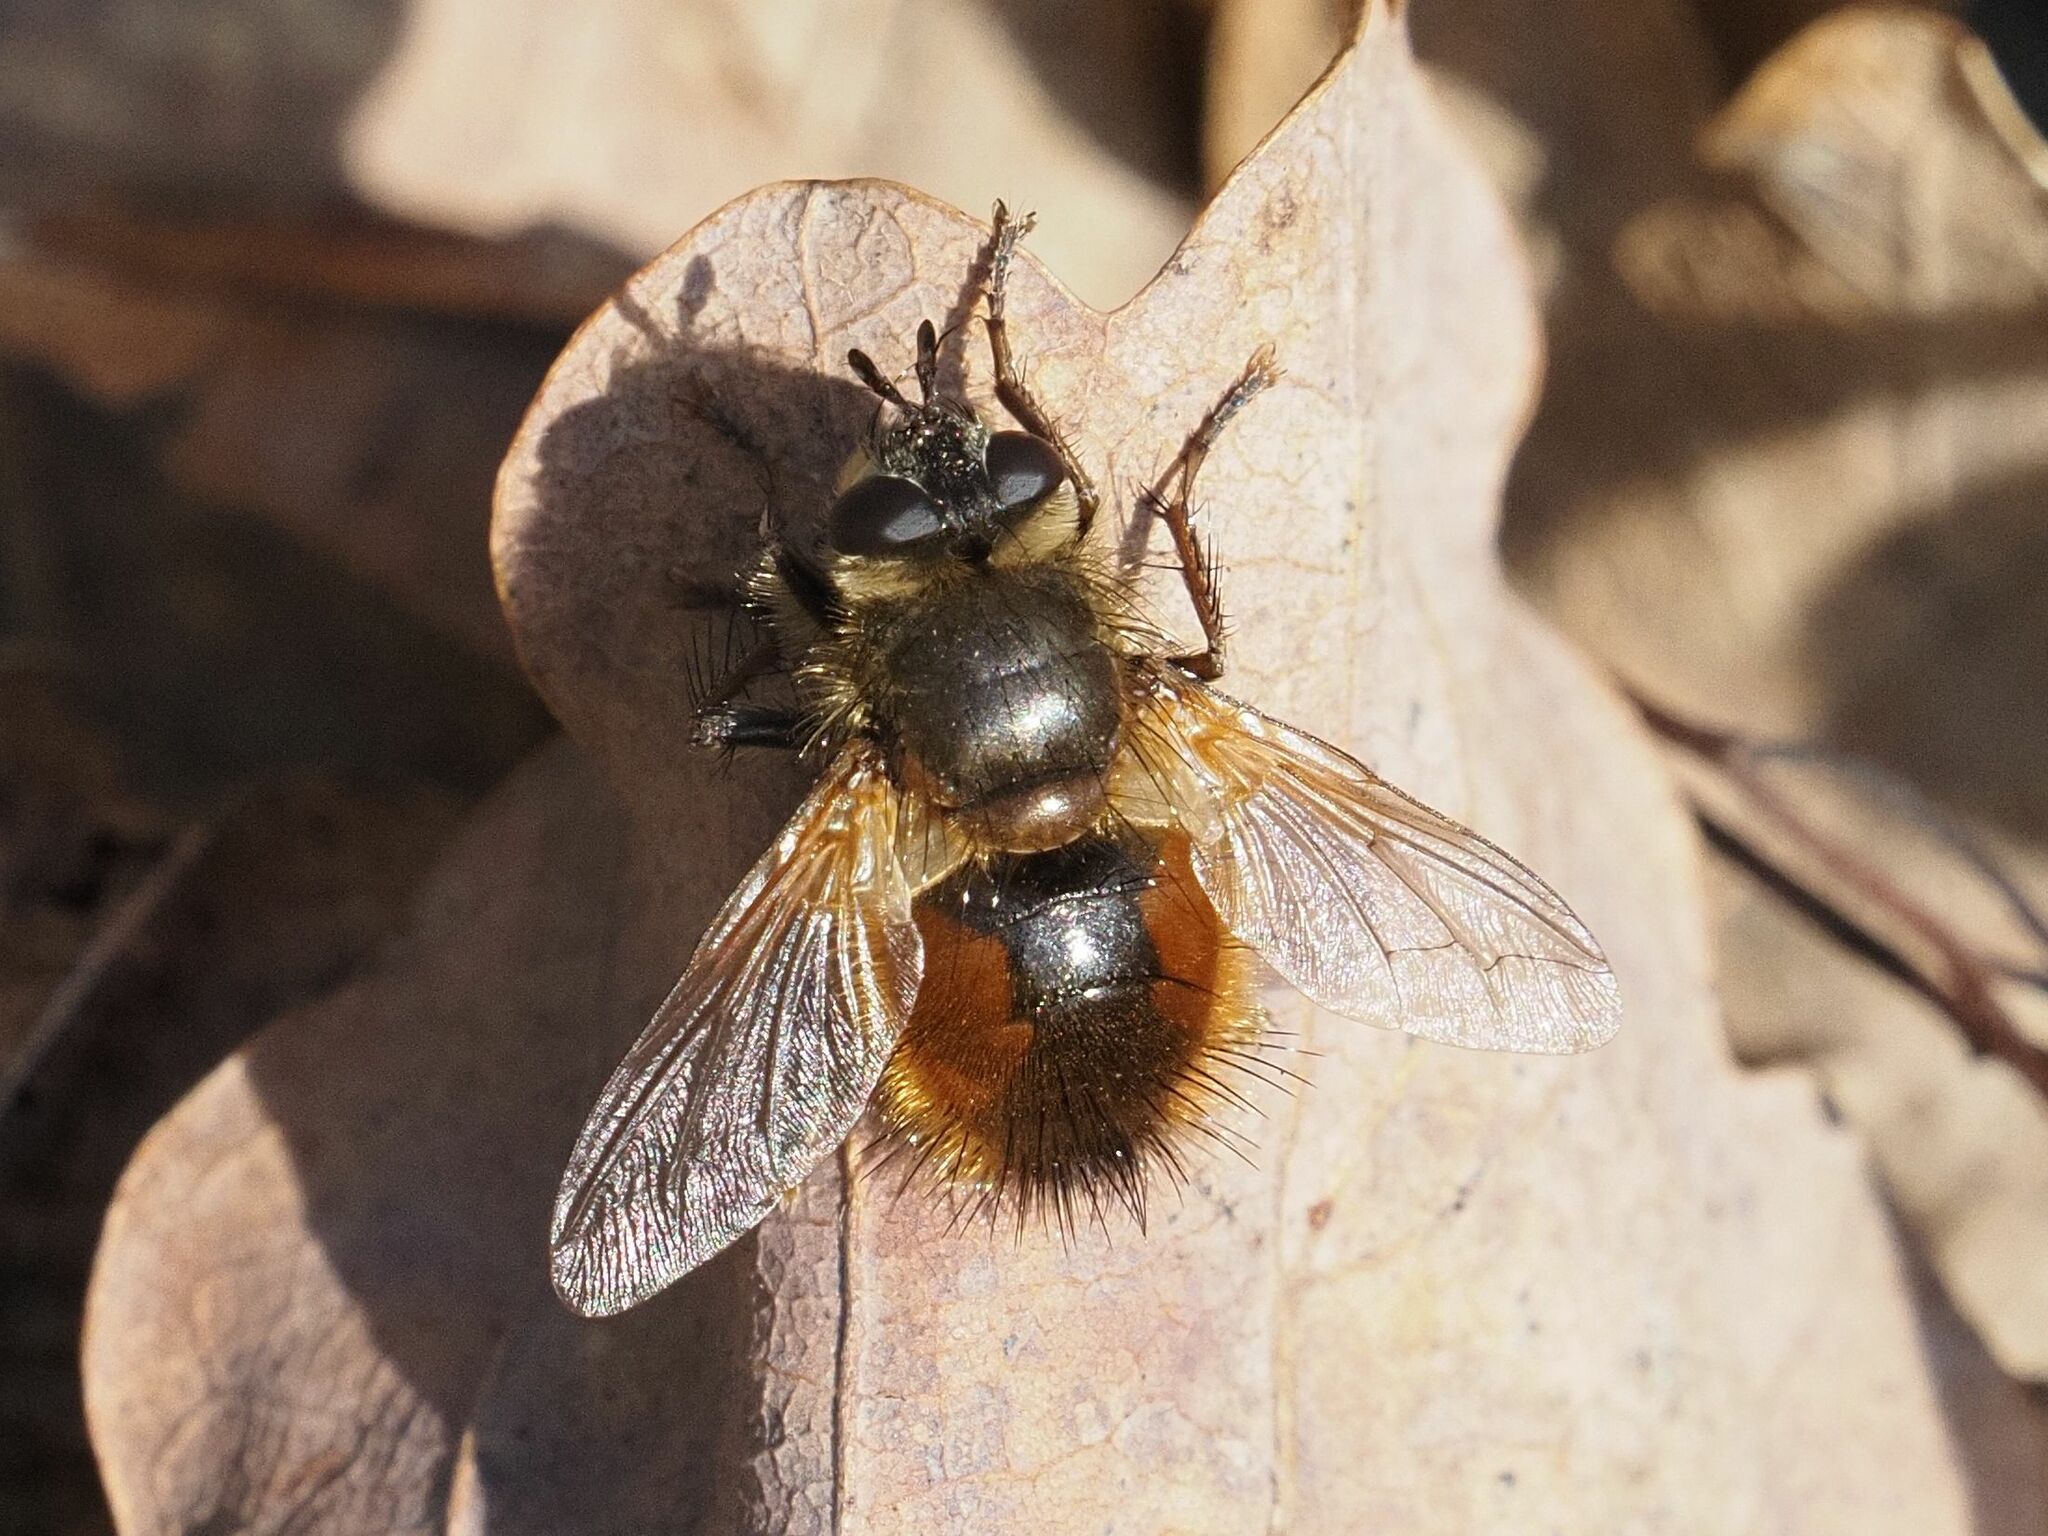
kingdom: Animalia
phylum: Arthropoda
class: Insecta
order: Diptera
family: Tachinidae
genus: Tachina
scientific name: Tachina lurida
